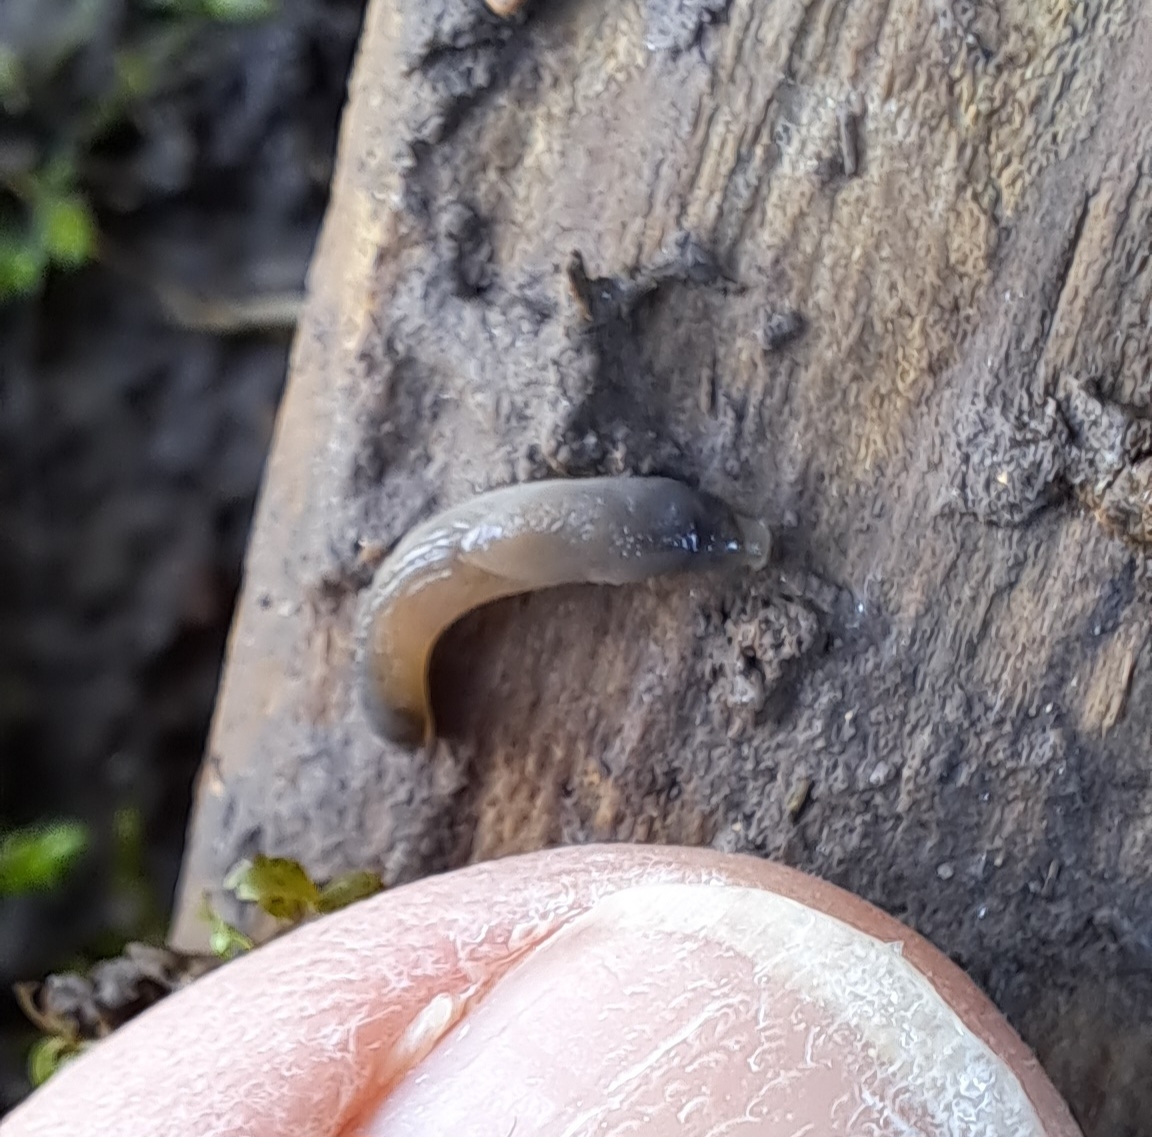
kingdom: Animalia
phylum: Mollusca
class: Gastropoda
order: Stylommatophora
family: Boettgerillidae
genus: Boettgerilla
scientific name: Boettgerilla pallens
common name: Worm slug
